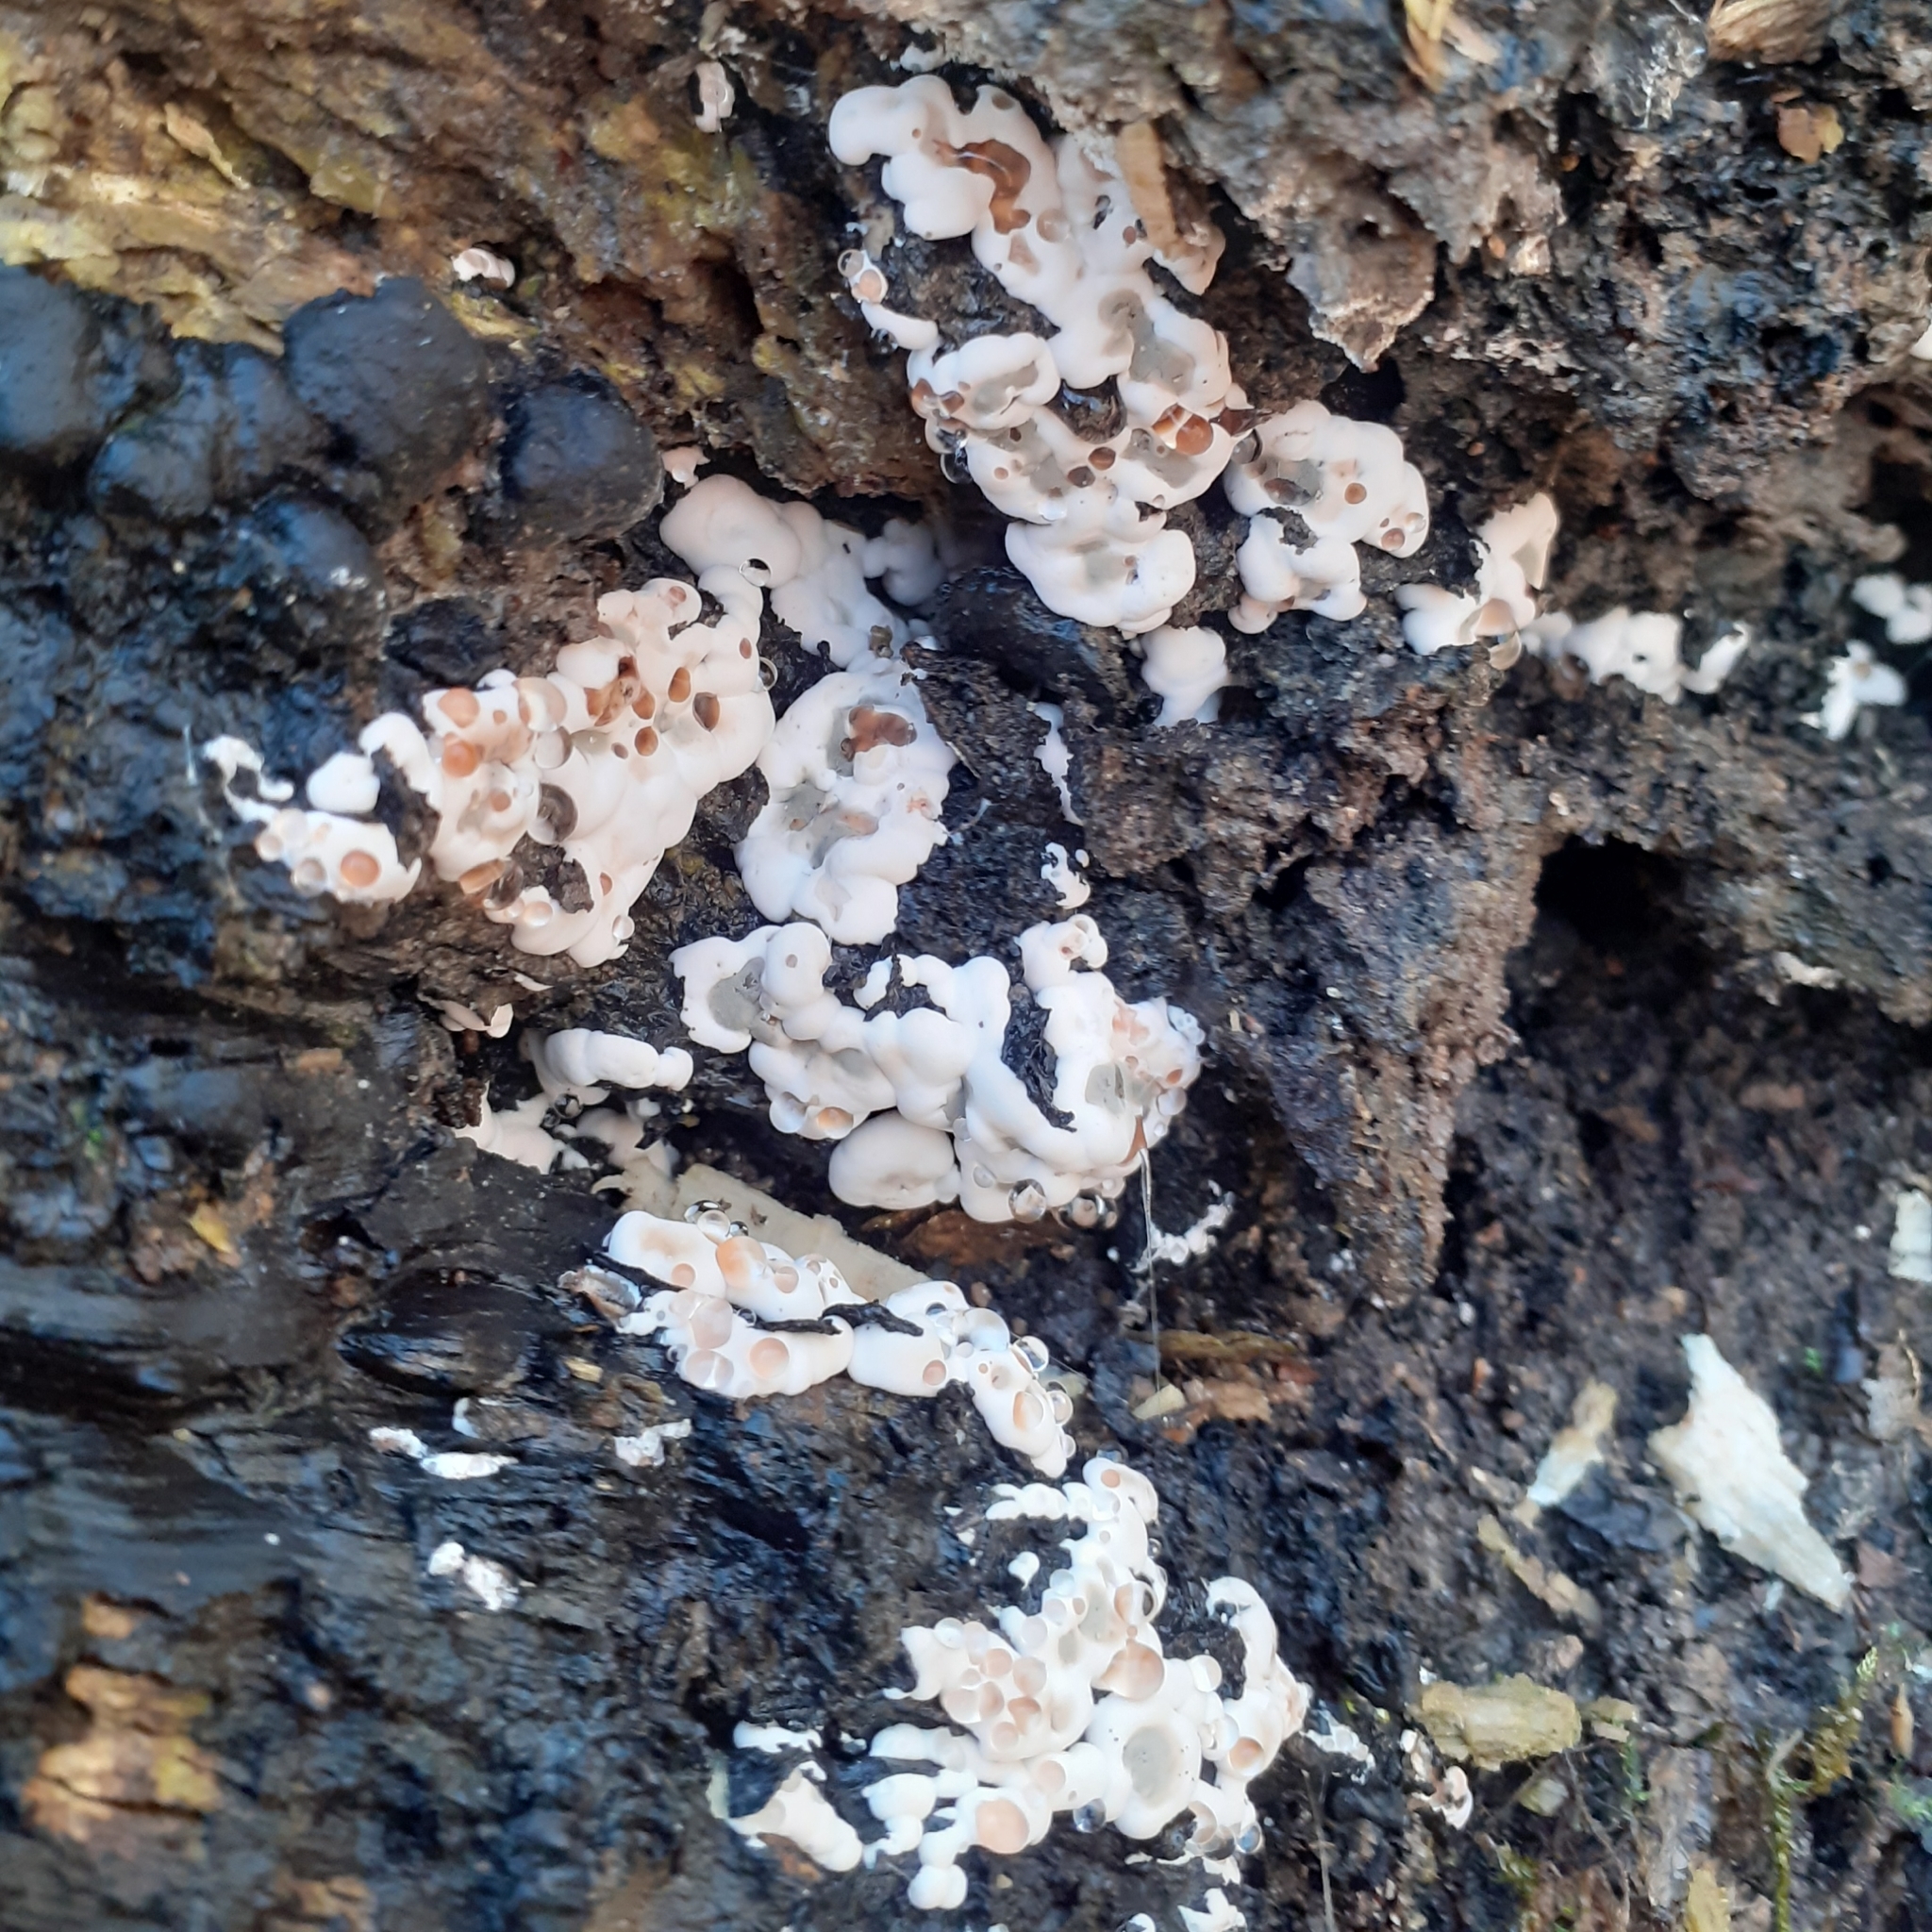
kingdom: Fungi
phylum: Ascomycota
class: Sordariomycetes
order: Xylariales
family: Xylariaceae
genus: Kretzschmaria
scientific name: Kretzschmaria deusta
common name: Brittle cinder
